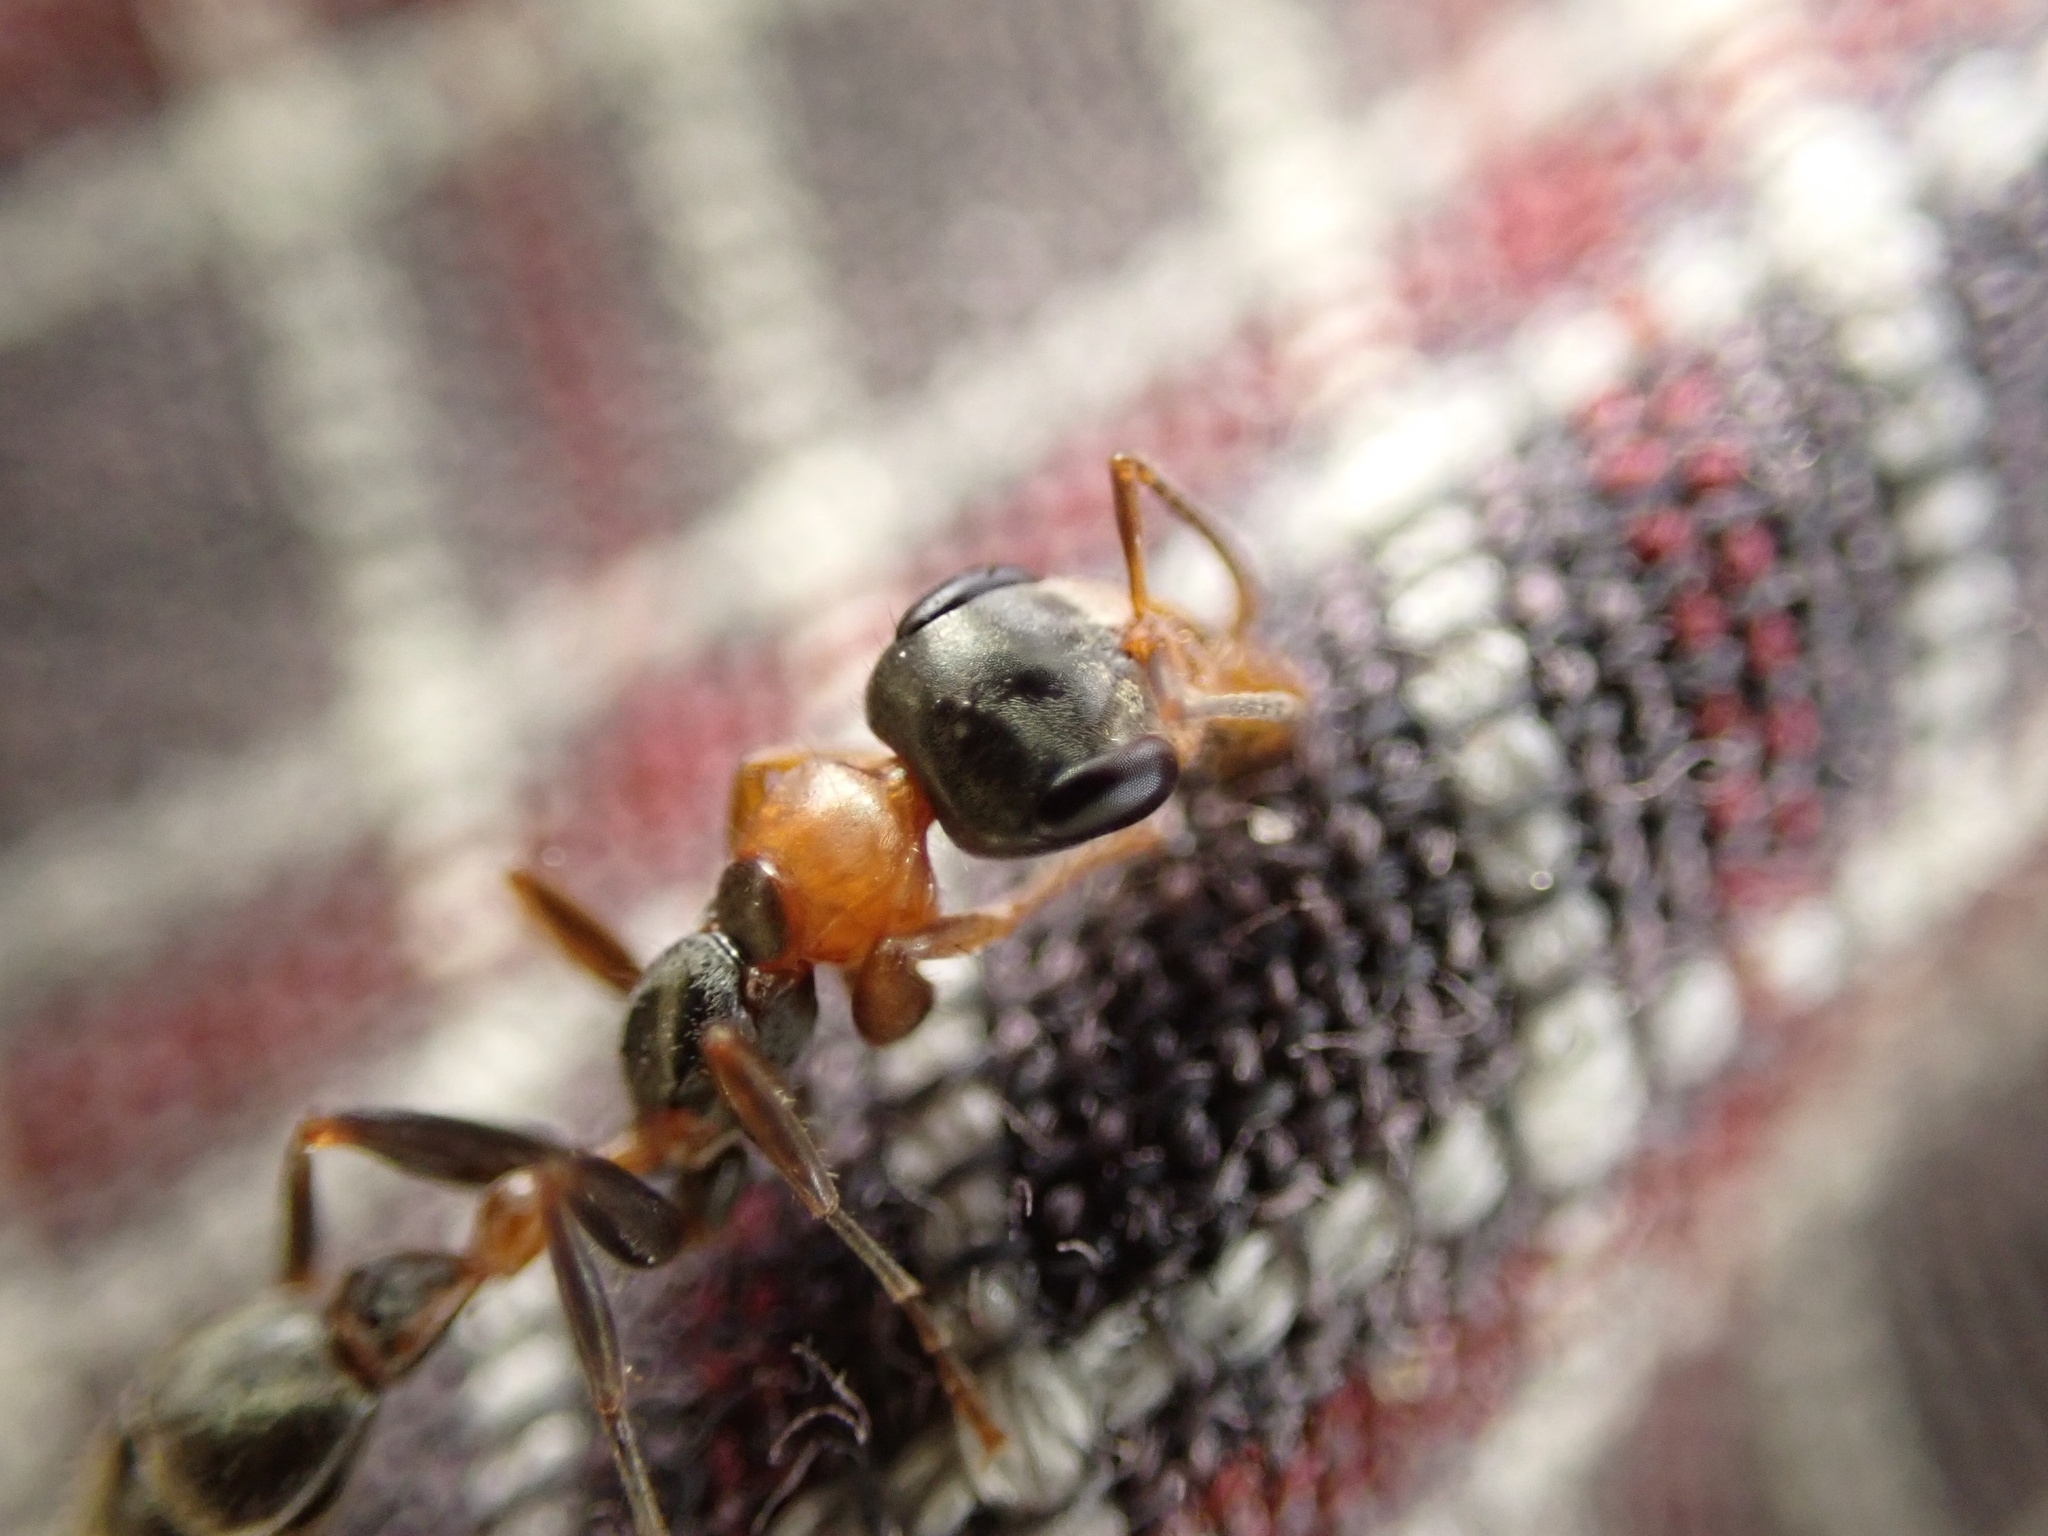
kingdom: Animalia
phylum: Arthropoda
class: Insecta
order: Hymenoptera
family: Formicidae
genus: Pseudomyrmex
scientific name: Pseudomyrmex gracilis
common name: Graceful twig ant
